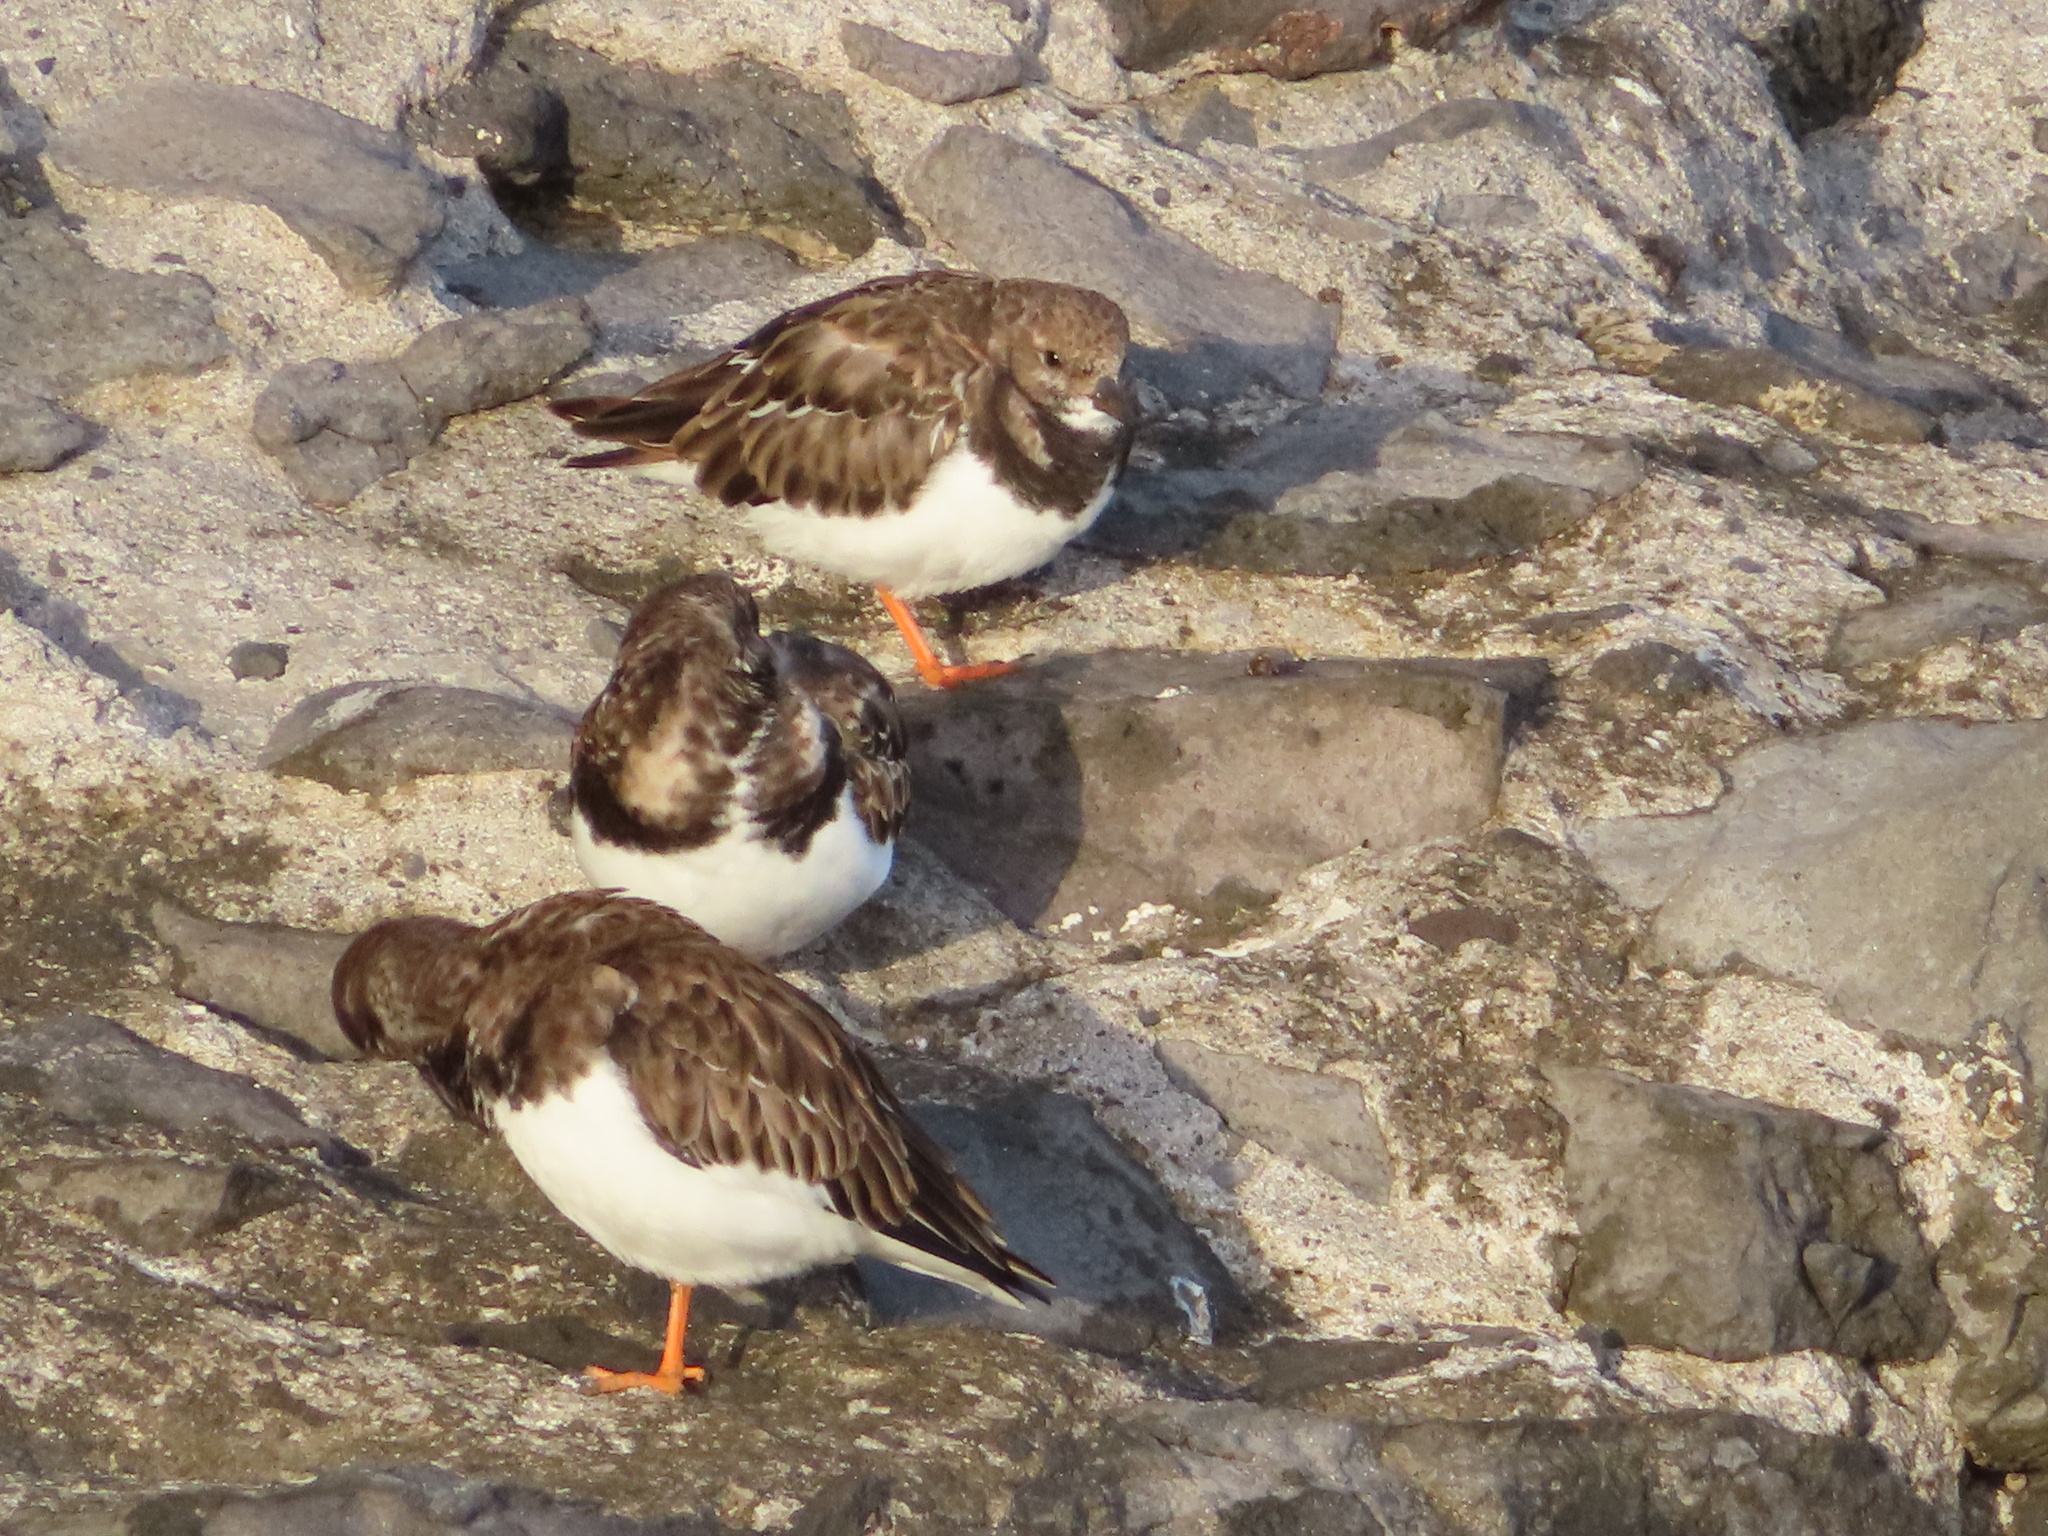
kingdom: Animalia
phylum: Chordata
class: Aves
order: Charadriiformes
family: Scolopacidae
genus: Arenaria
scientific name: Arenaria interpres
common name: Ruddy turnstone
